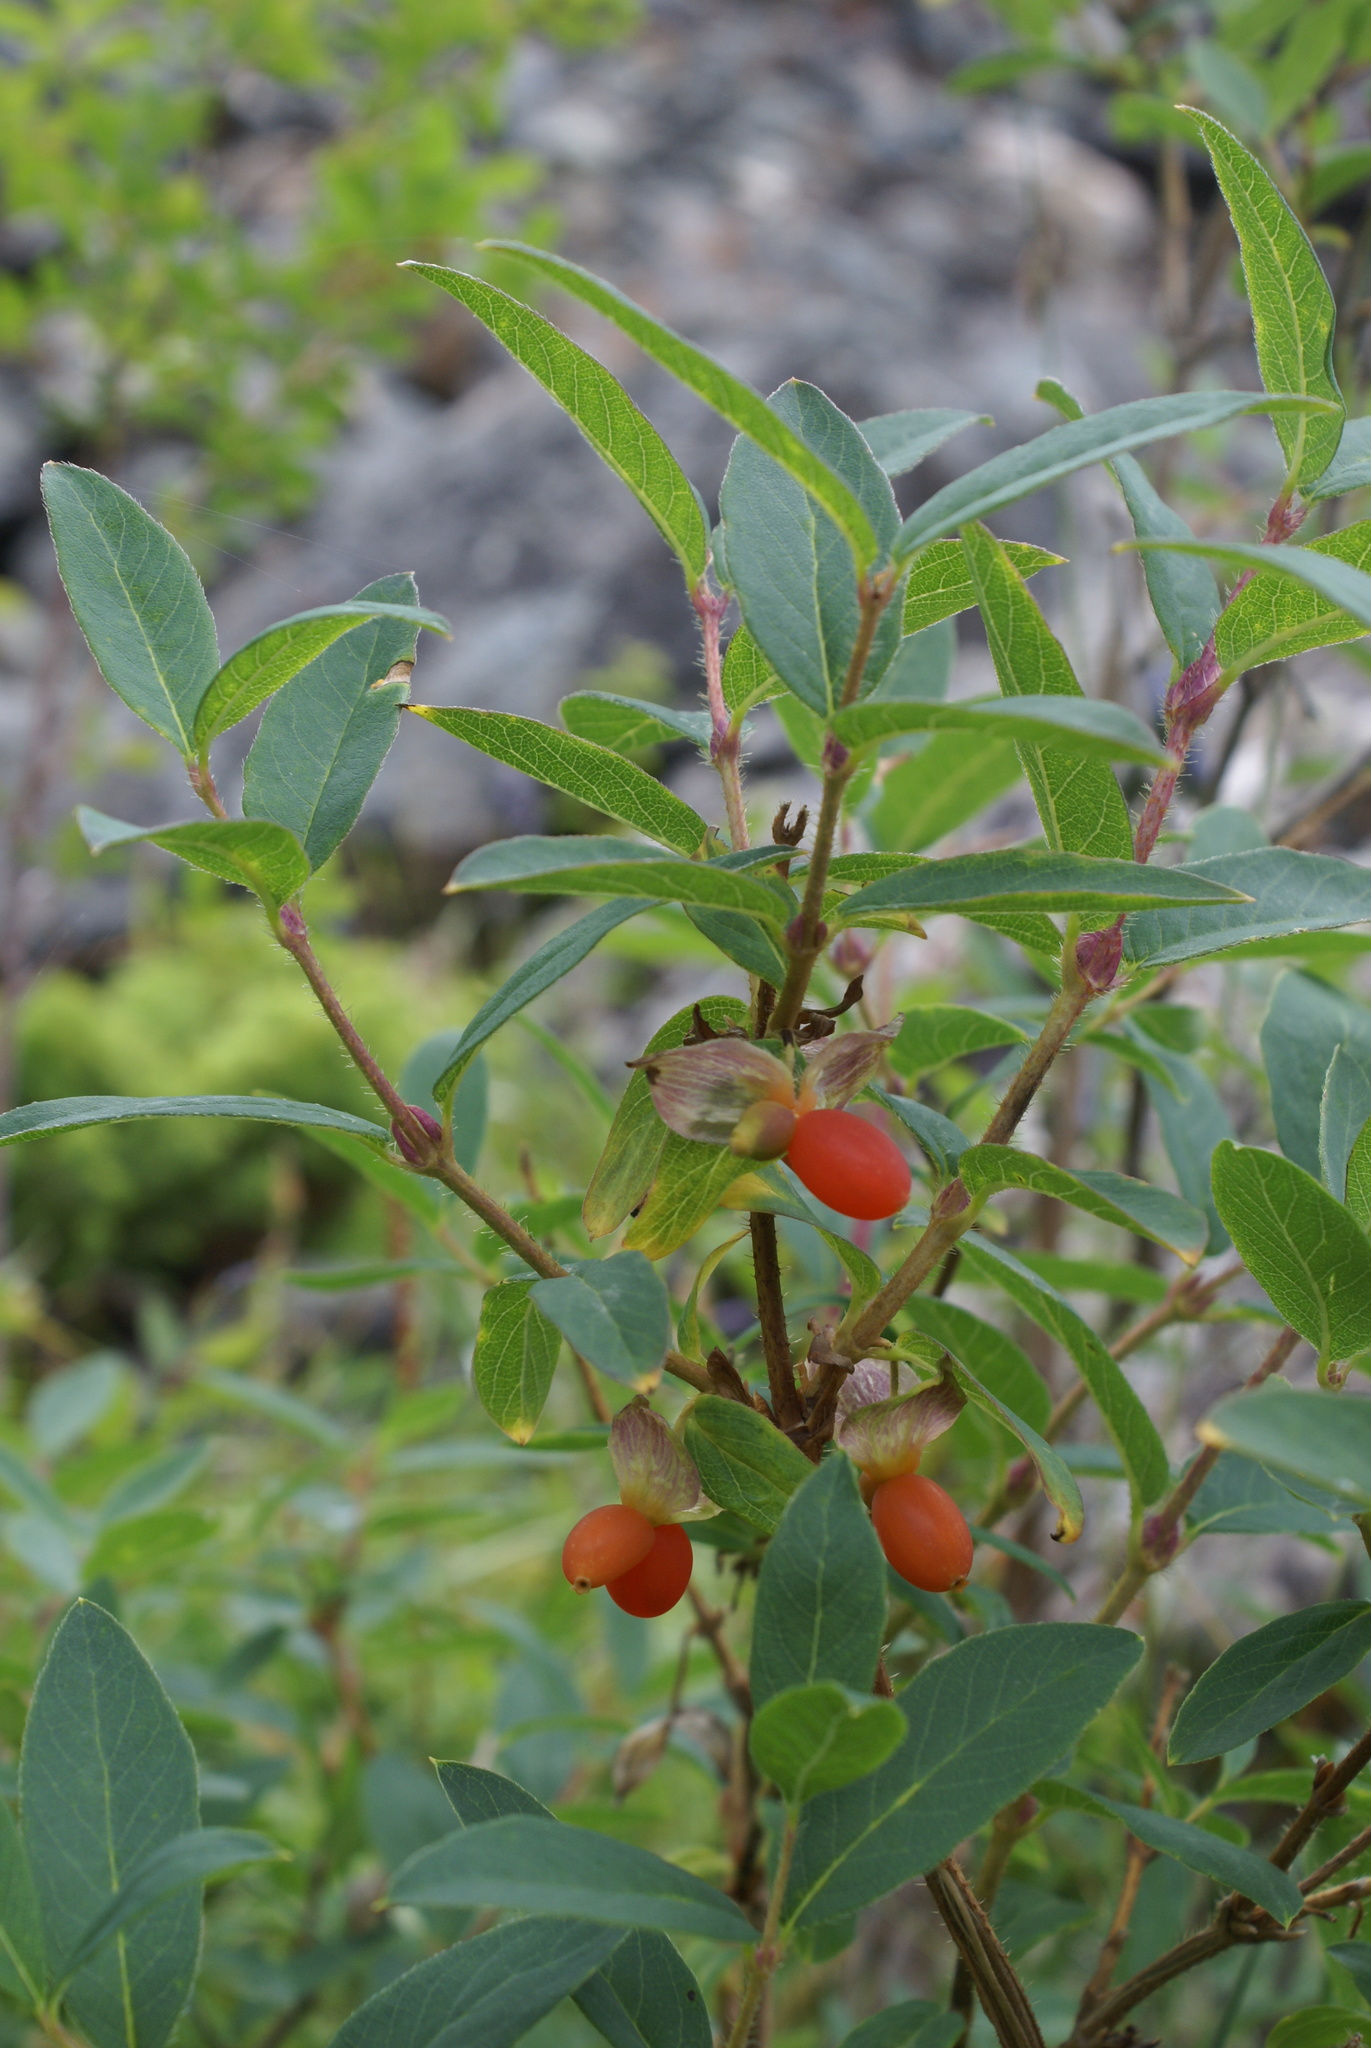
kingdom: Plantae
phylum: Tracheophyta
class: Magnoliopsida
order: Dipsacales
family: Caprifoliaceae
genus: Lonicera
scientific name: Lonicera hispida
